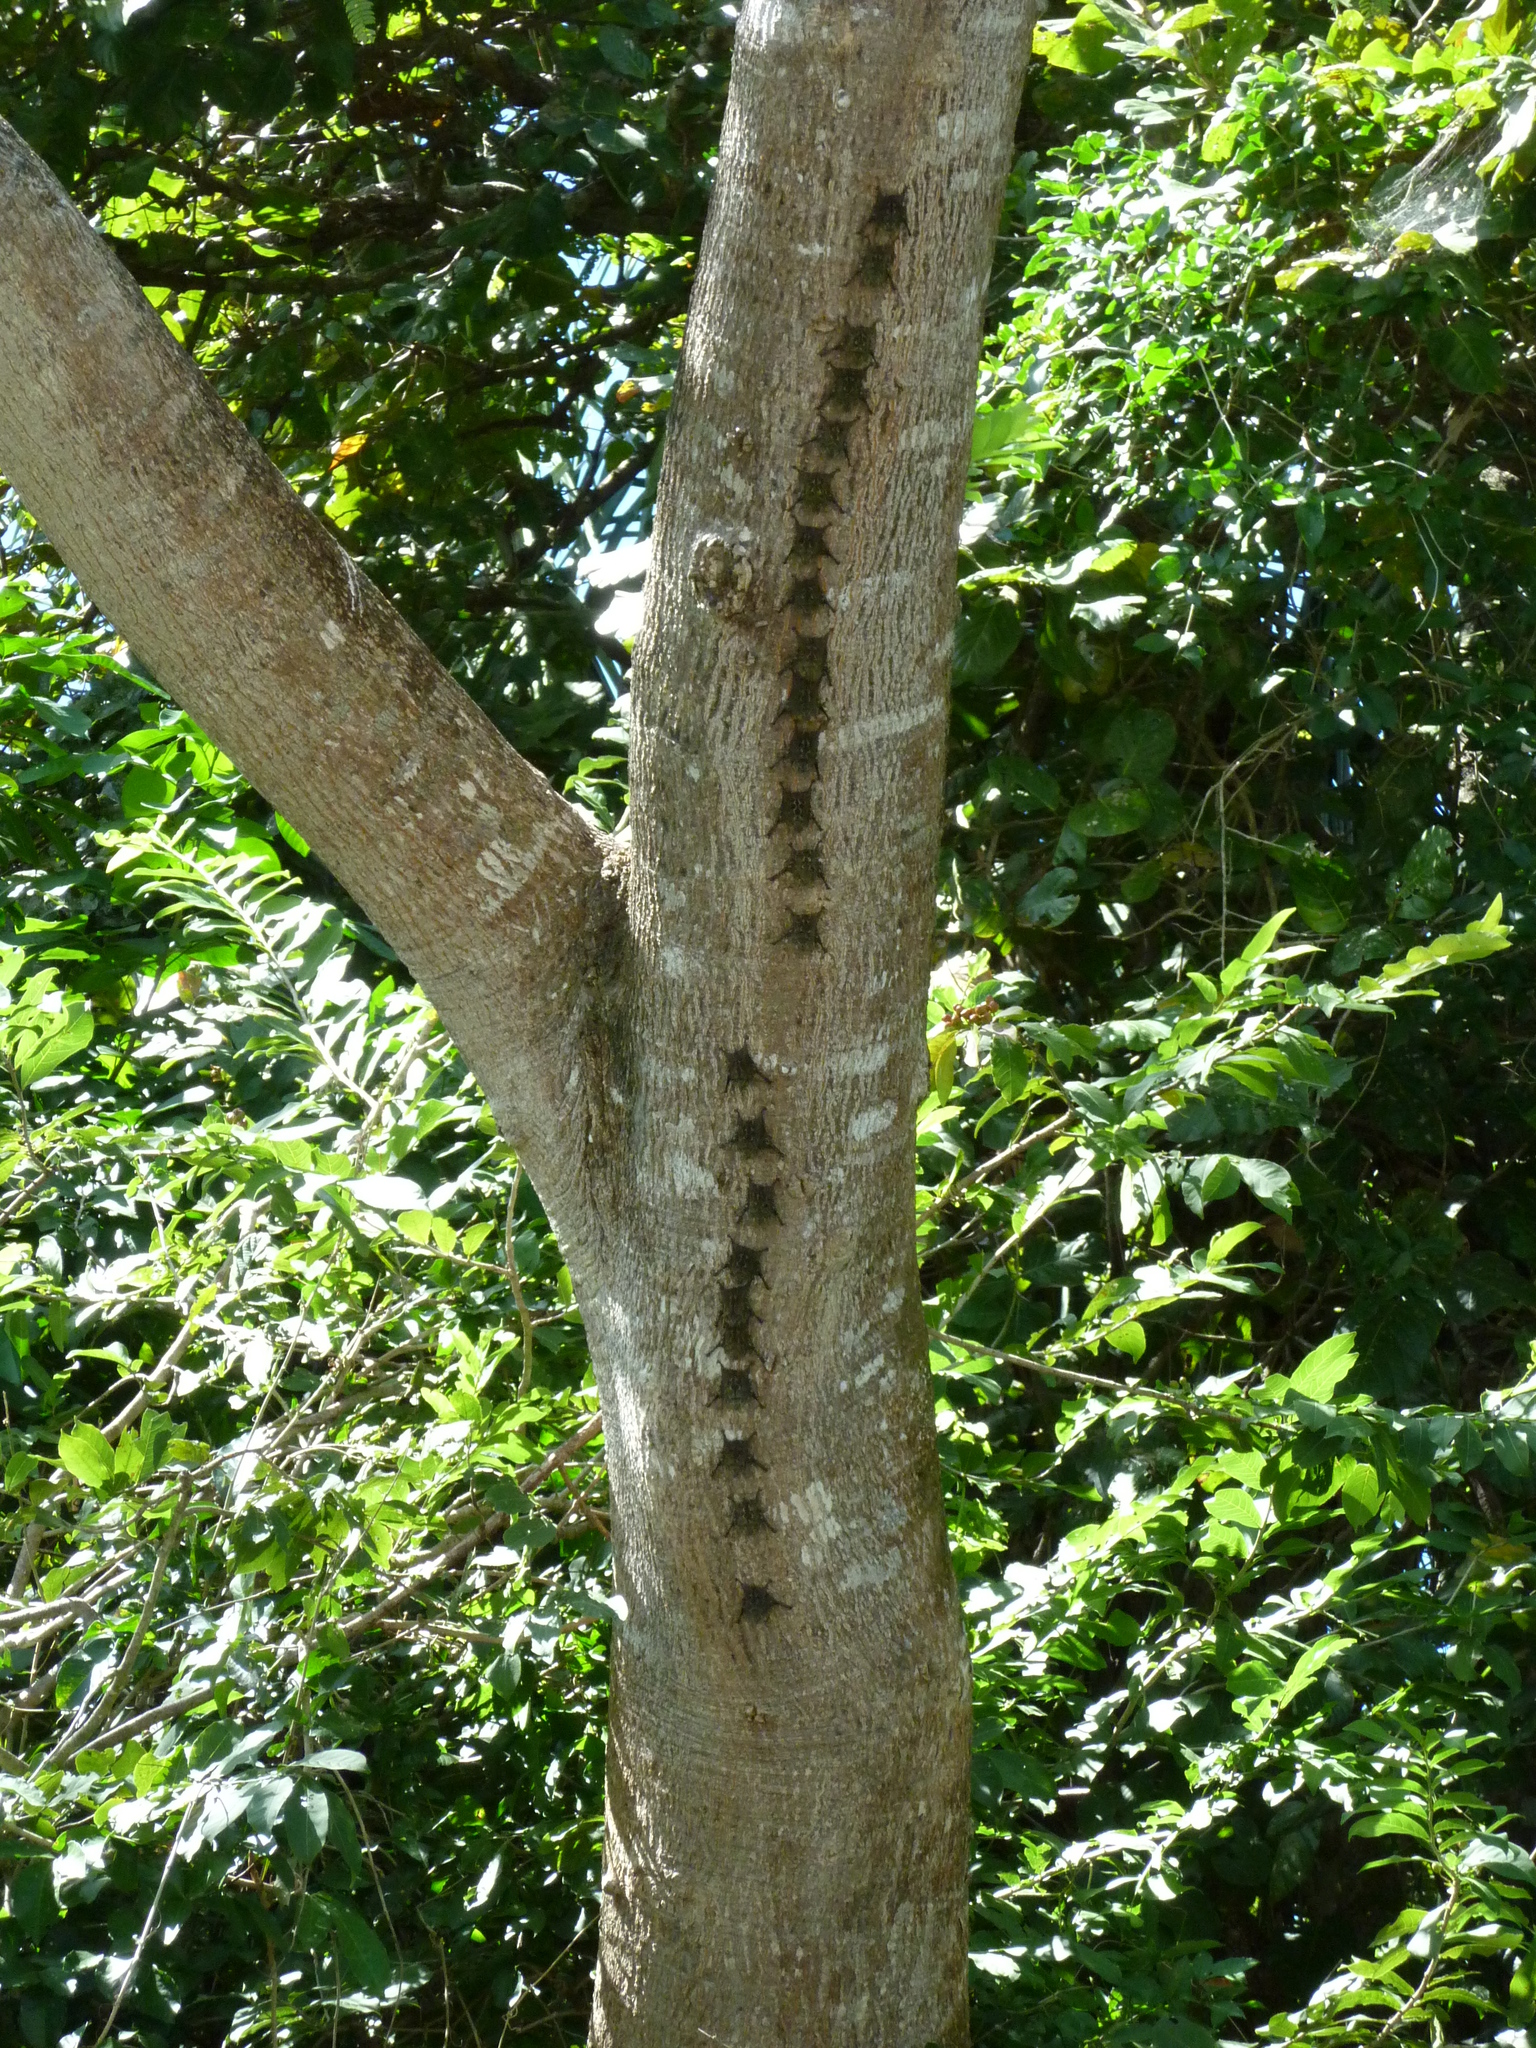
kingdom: Animalia
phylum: Chordata
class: Mammalia
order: Chiroptera
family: Emballonuridae
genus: Rhynchonycteris
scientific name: Rhynchonycteris naso
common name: Proboscis bat
